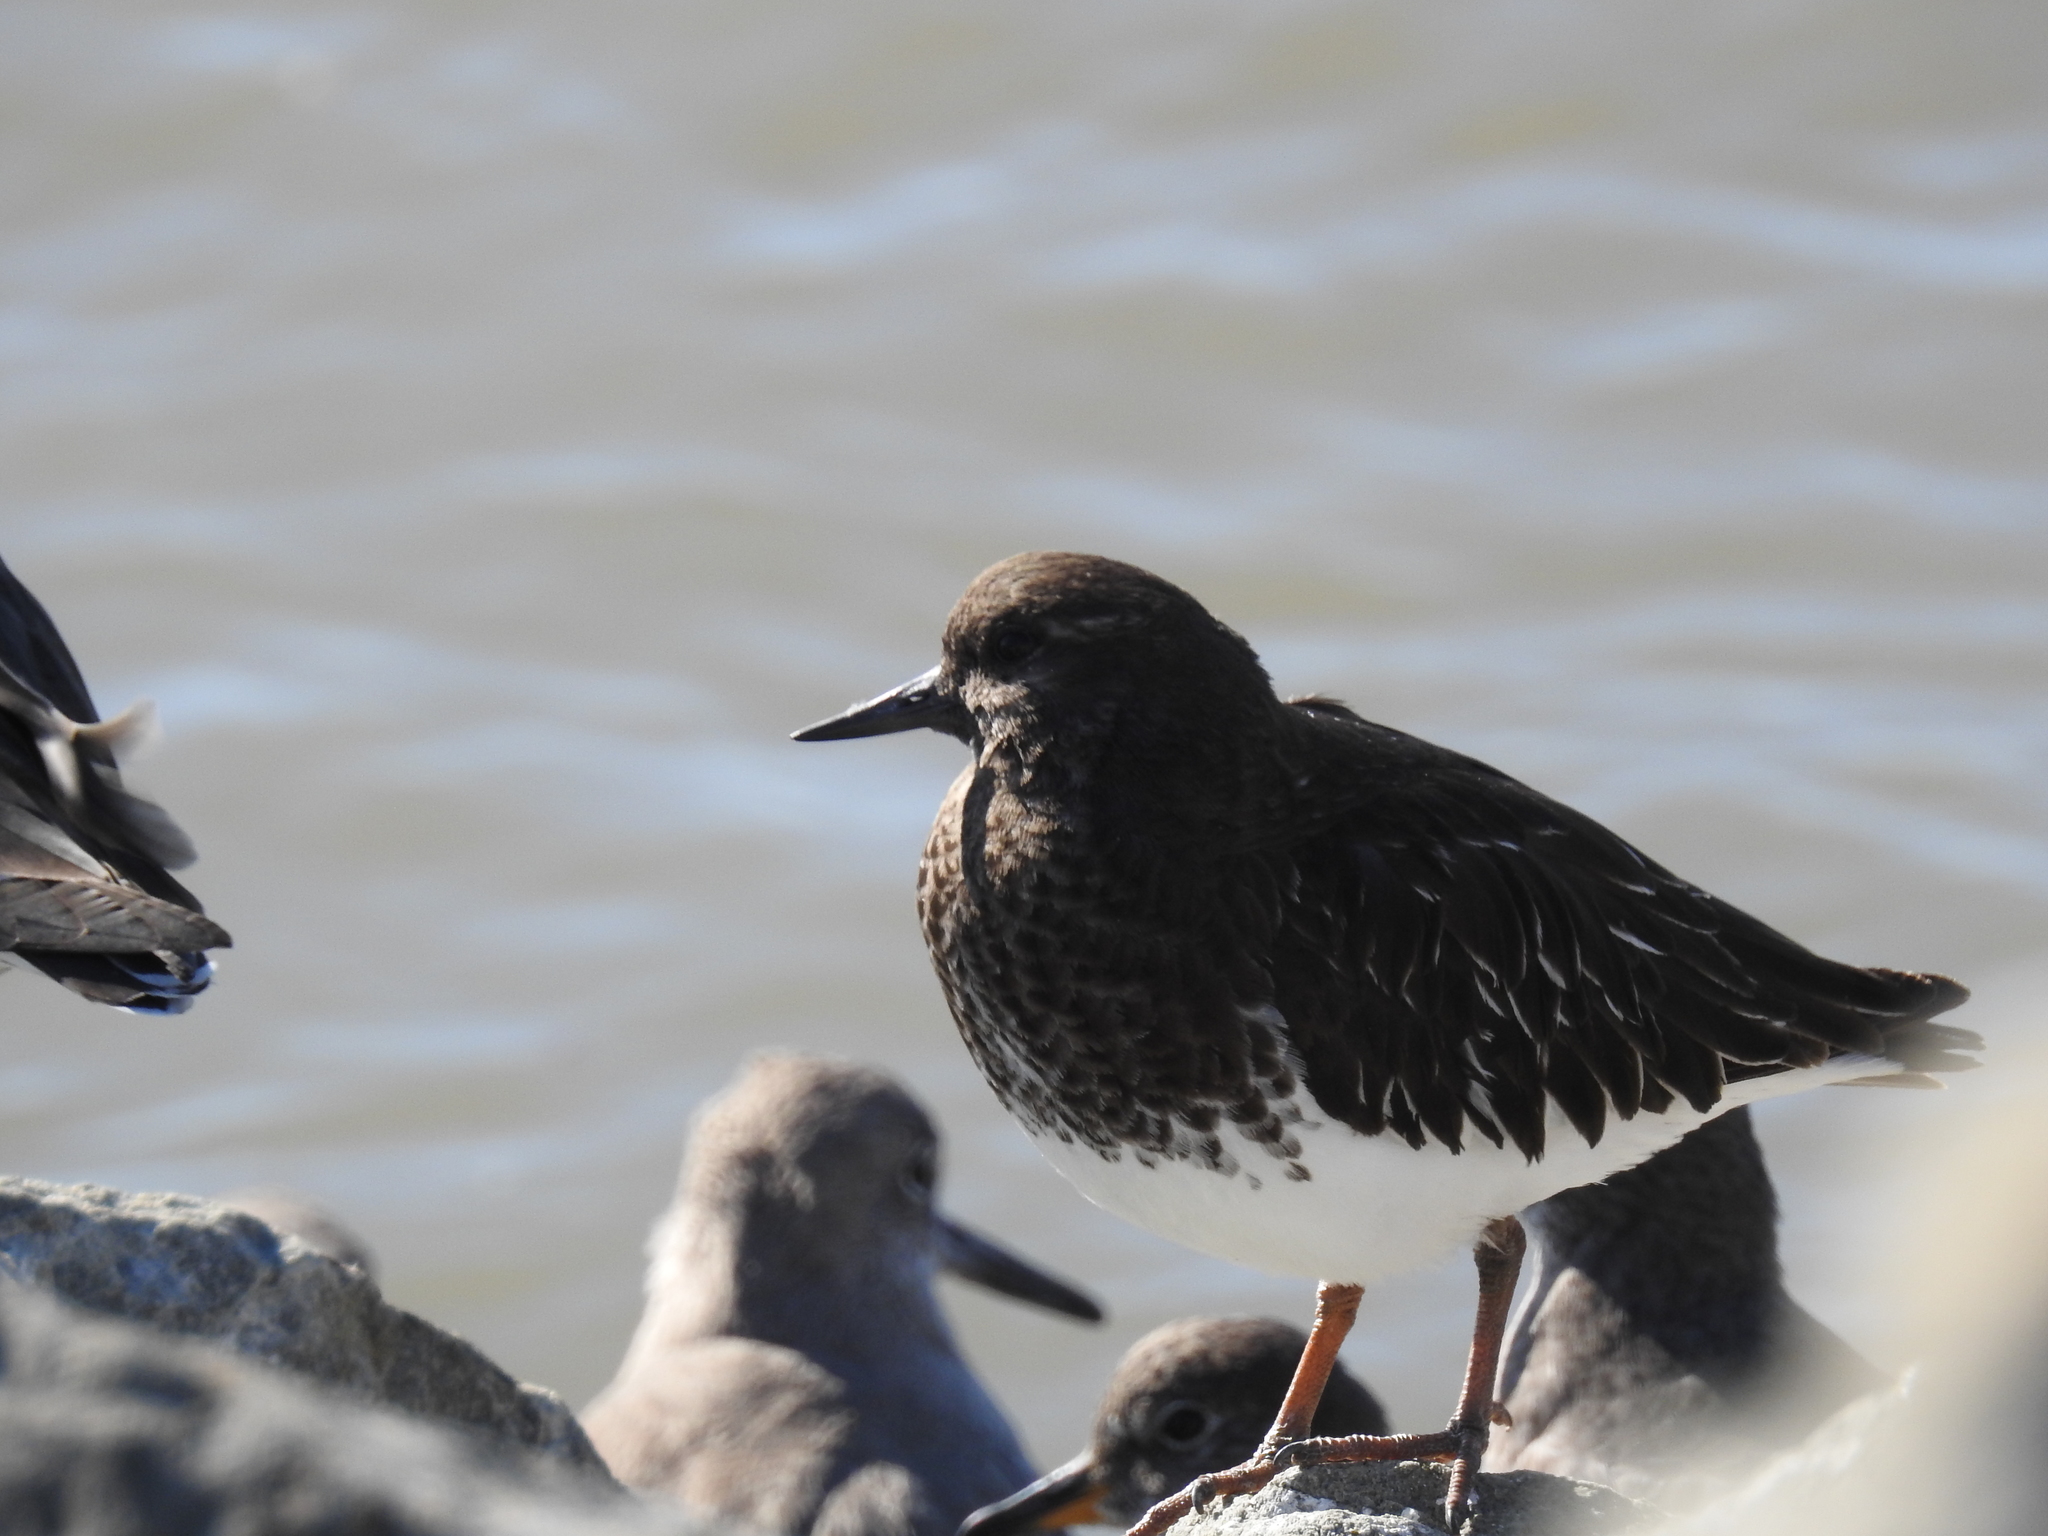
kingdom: Animalia
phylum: Chordata
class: Aves
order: Charadriiformes
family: Scolopacidae
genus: Arenaria
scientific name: Arenaria melanocephala
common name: Black turnstone
